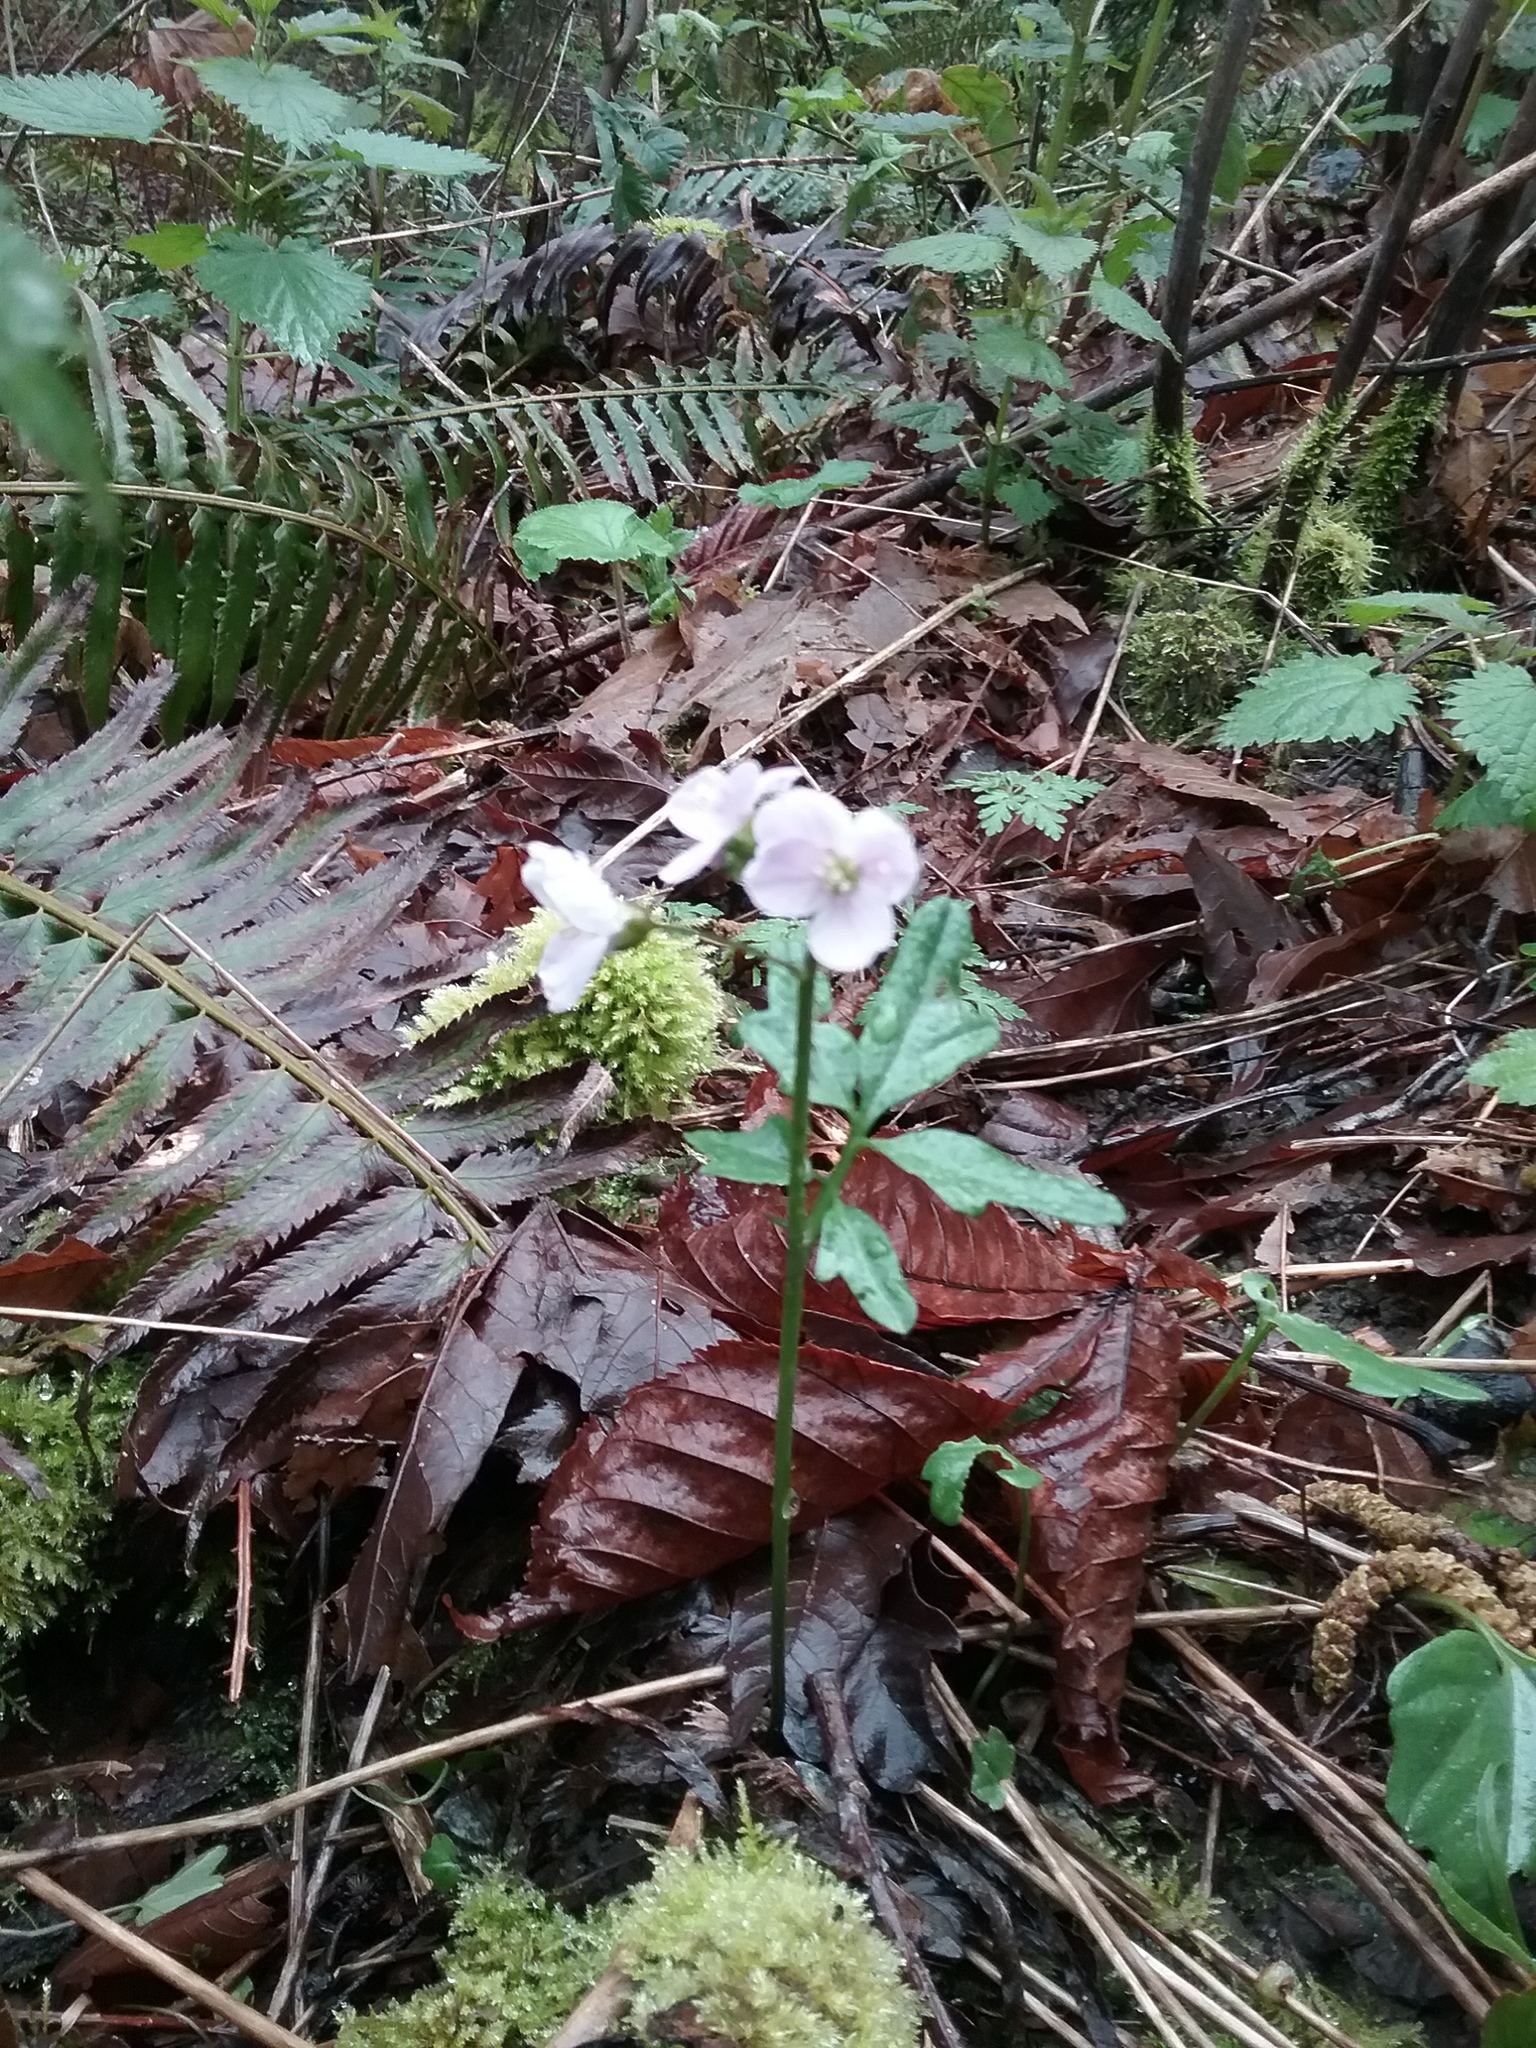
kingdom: Plantae
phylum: Tracheophyta
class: Magnoliopsida
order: Brassicales
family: Brassicaceae
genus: Cardamine
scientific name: Cardamine nuttallii
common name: Nuttall's toothwort
